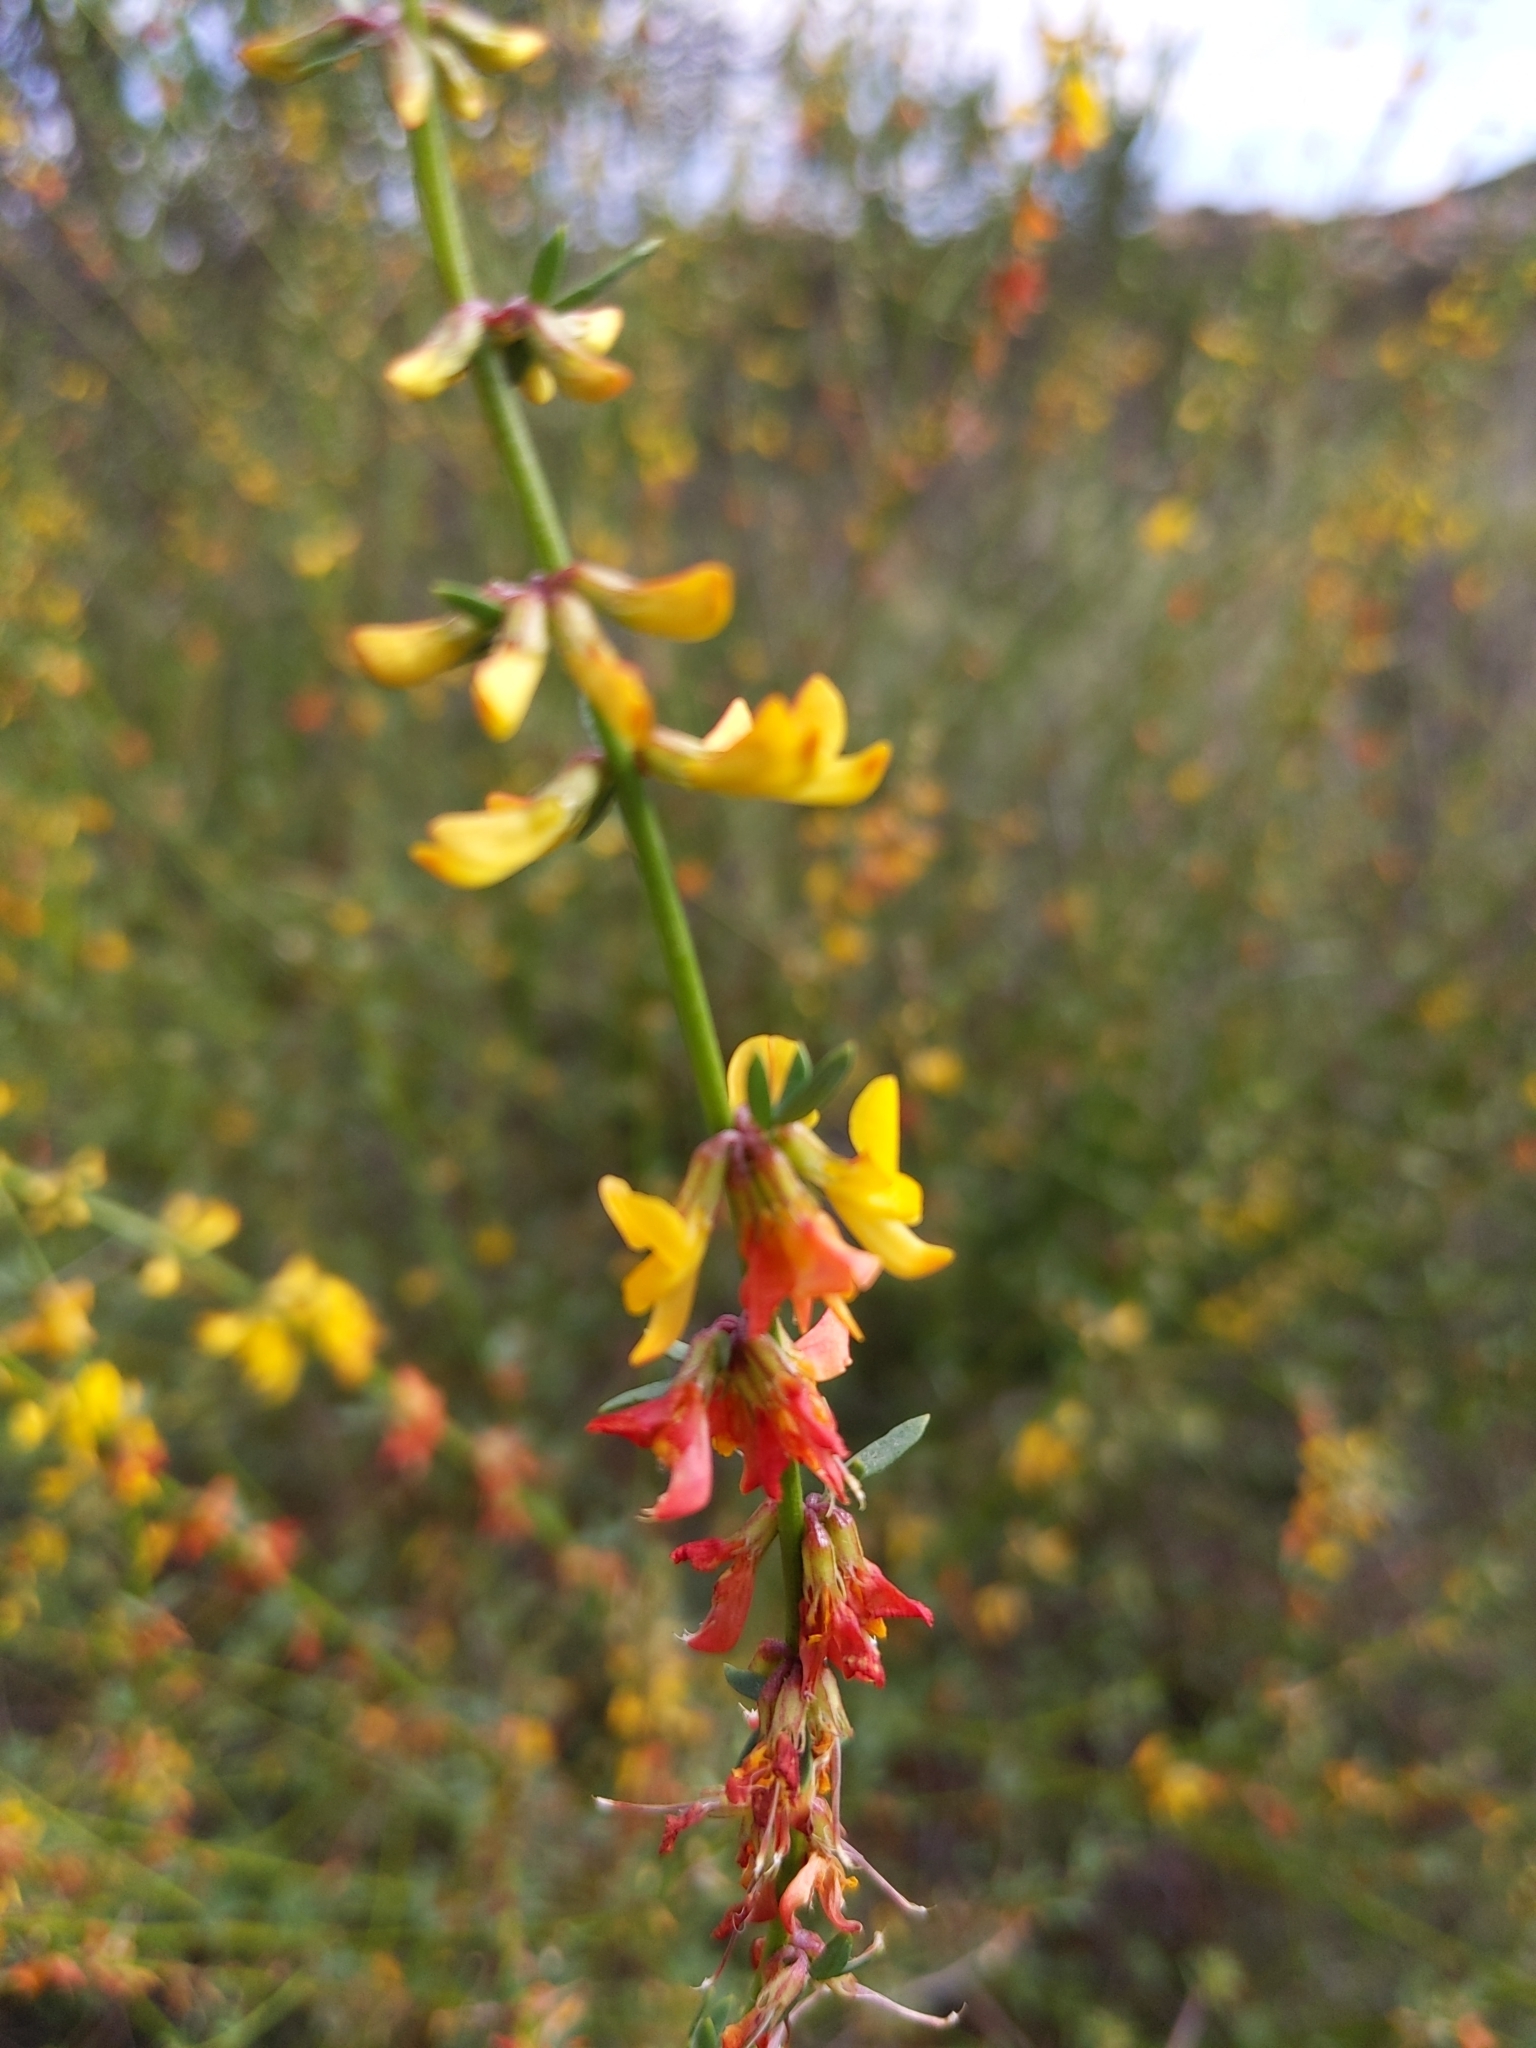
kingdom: Plantae
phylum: Tracheophyta
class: Magnoliopsida
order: Fabales
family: Fabaceae
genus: Acmispon
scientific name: Acmispon glaber
